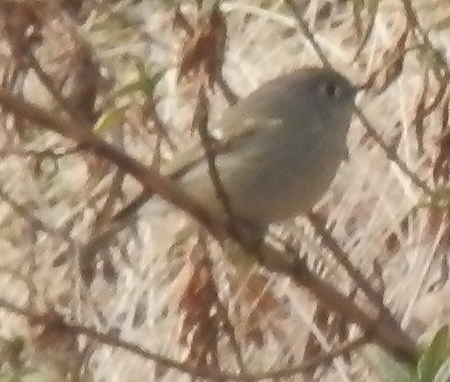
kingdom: Animalia
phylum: Chordata
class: Aves
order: Passeriformes
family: Regulidae
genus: Regulus
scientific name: Regulus calendula
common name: Ruby-crowned kinglet
